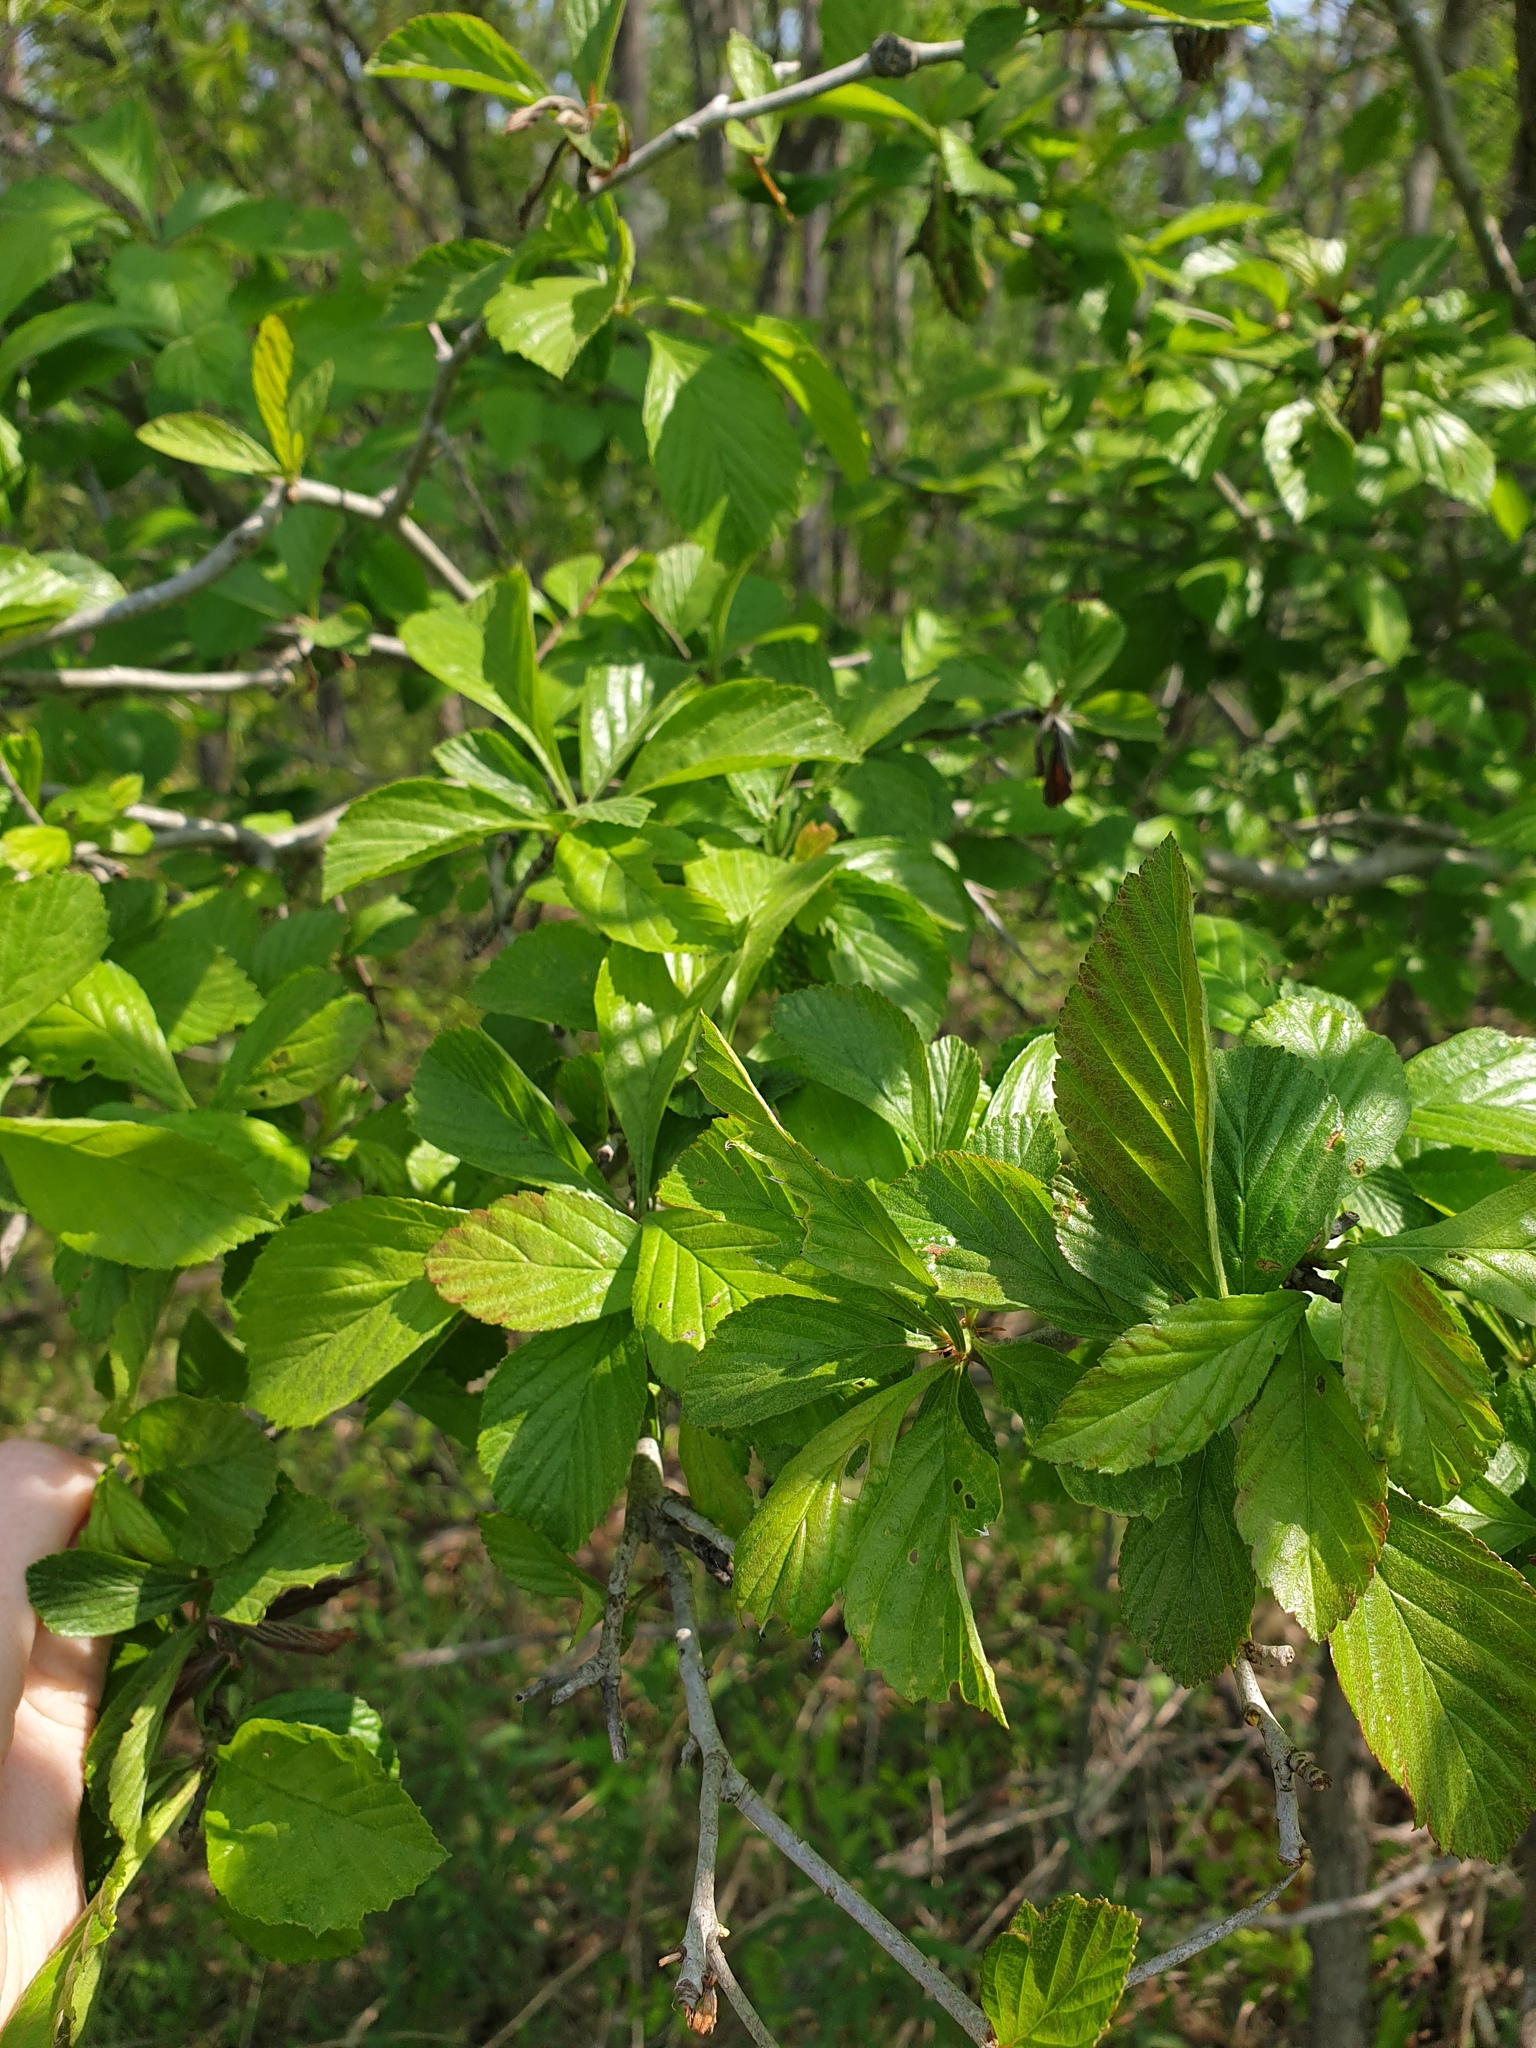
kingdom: Plantae
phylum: Tracheophyta
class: Magnoliopsida
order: Rosales
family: Rosaceae
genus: Crataegus
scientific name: Crataegus punctata
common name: Dotted hawthorn
